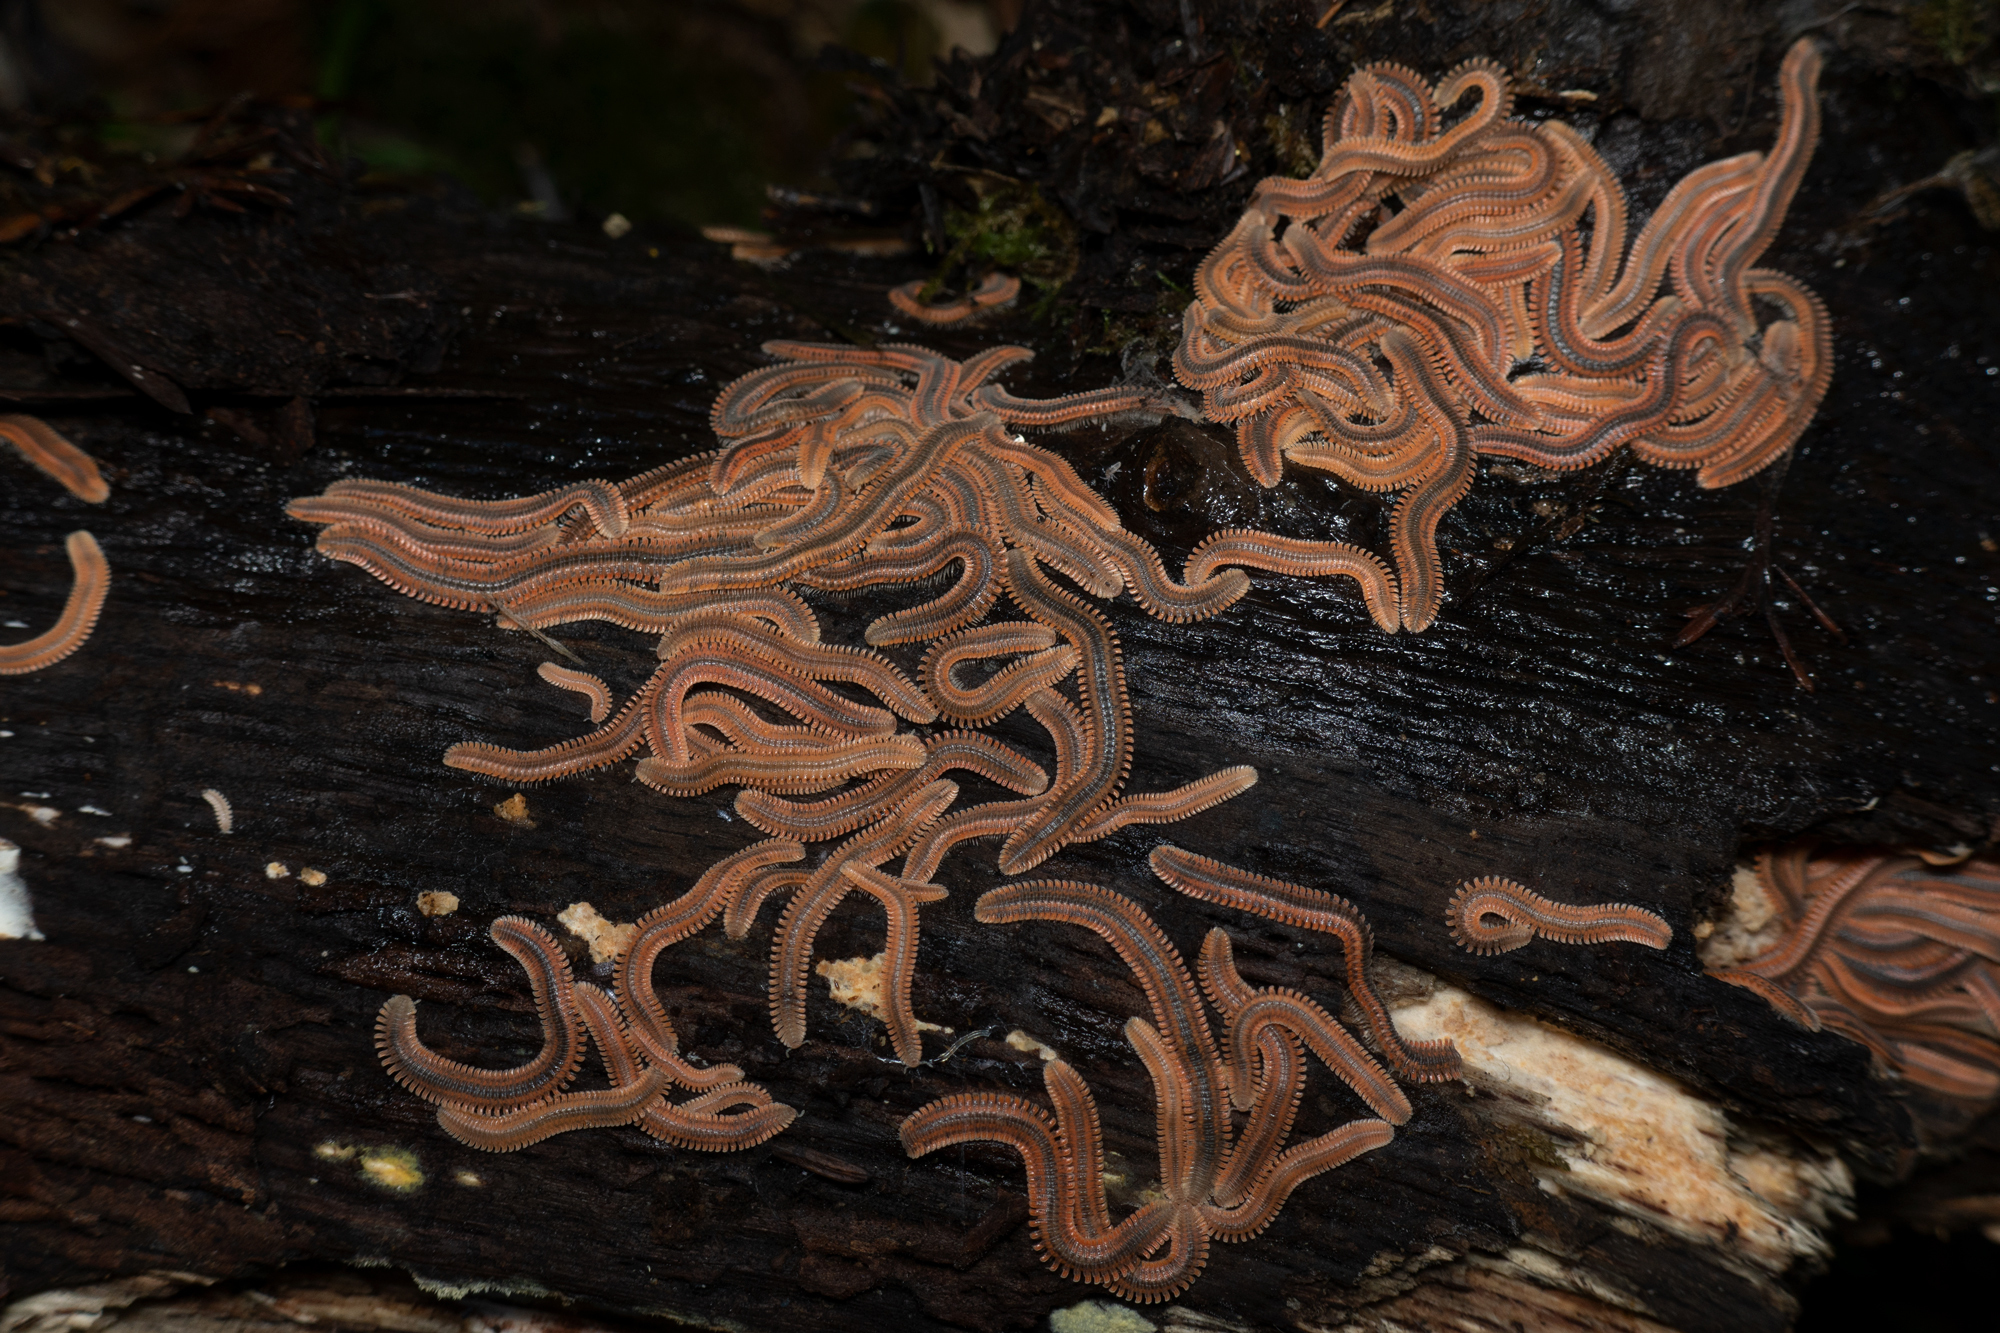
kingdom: Animalia
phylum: Arthropoda
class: Diplopoda
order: Platydesmida
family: Andrognathidae
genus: Brachycybe
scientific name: Brachycybe producta
